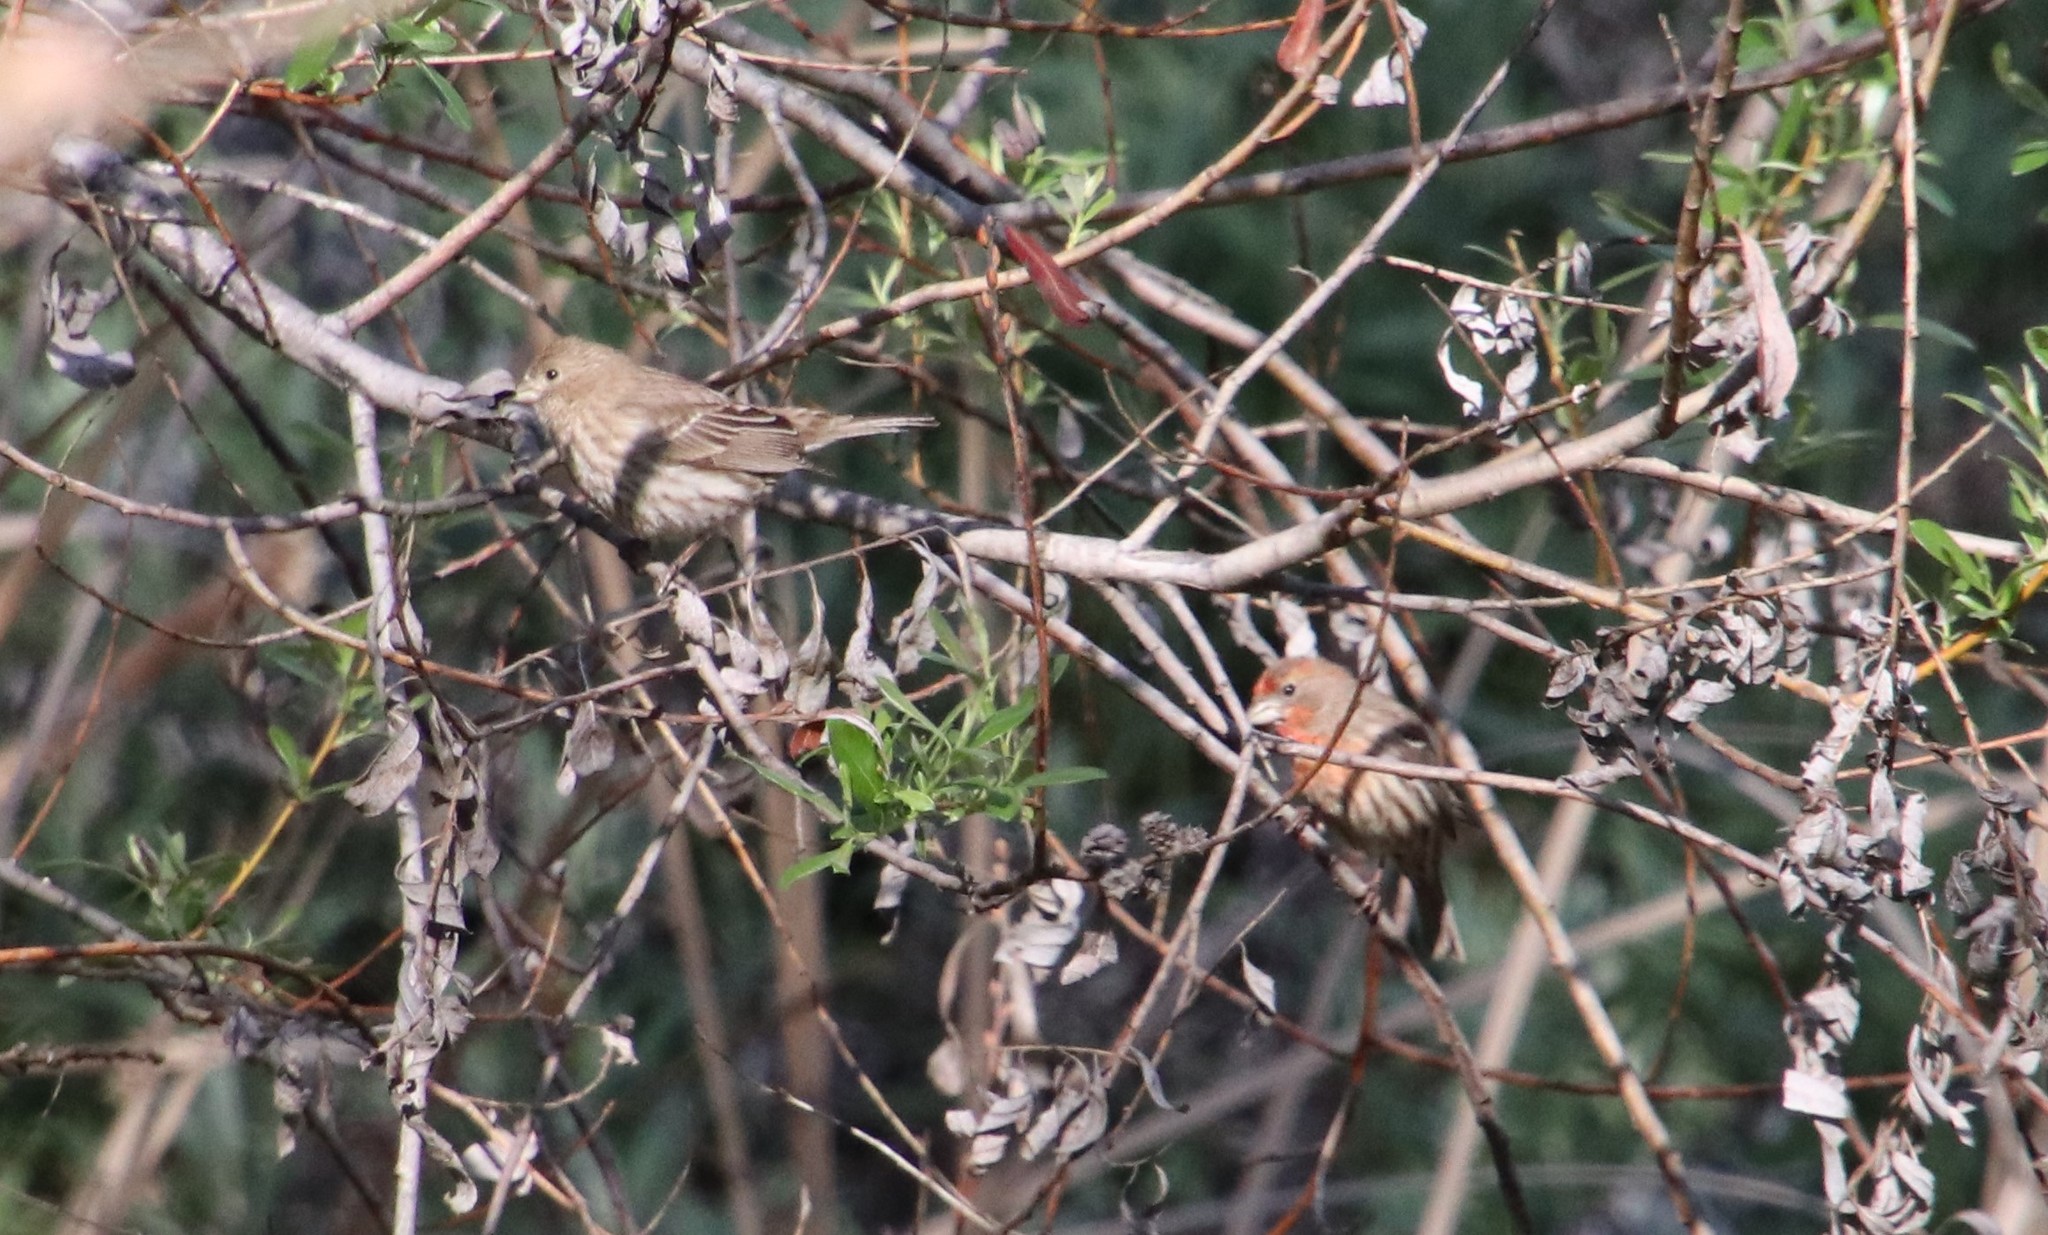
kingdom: Animalia
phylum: Chordata
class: Aves
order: Passeriformes
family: Fringillidae
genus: Haemorhous
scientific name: Haemorhous mexicanus
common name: House finch
